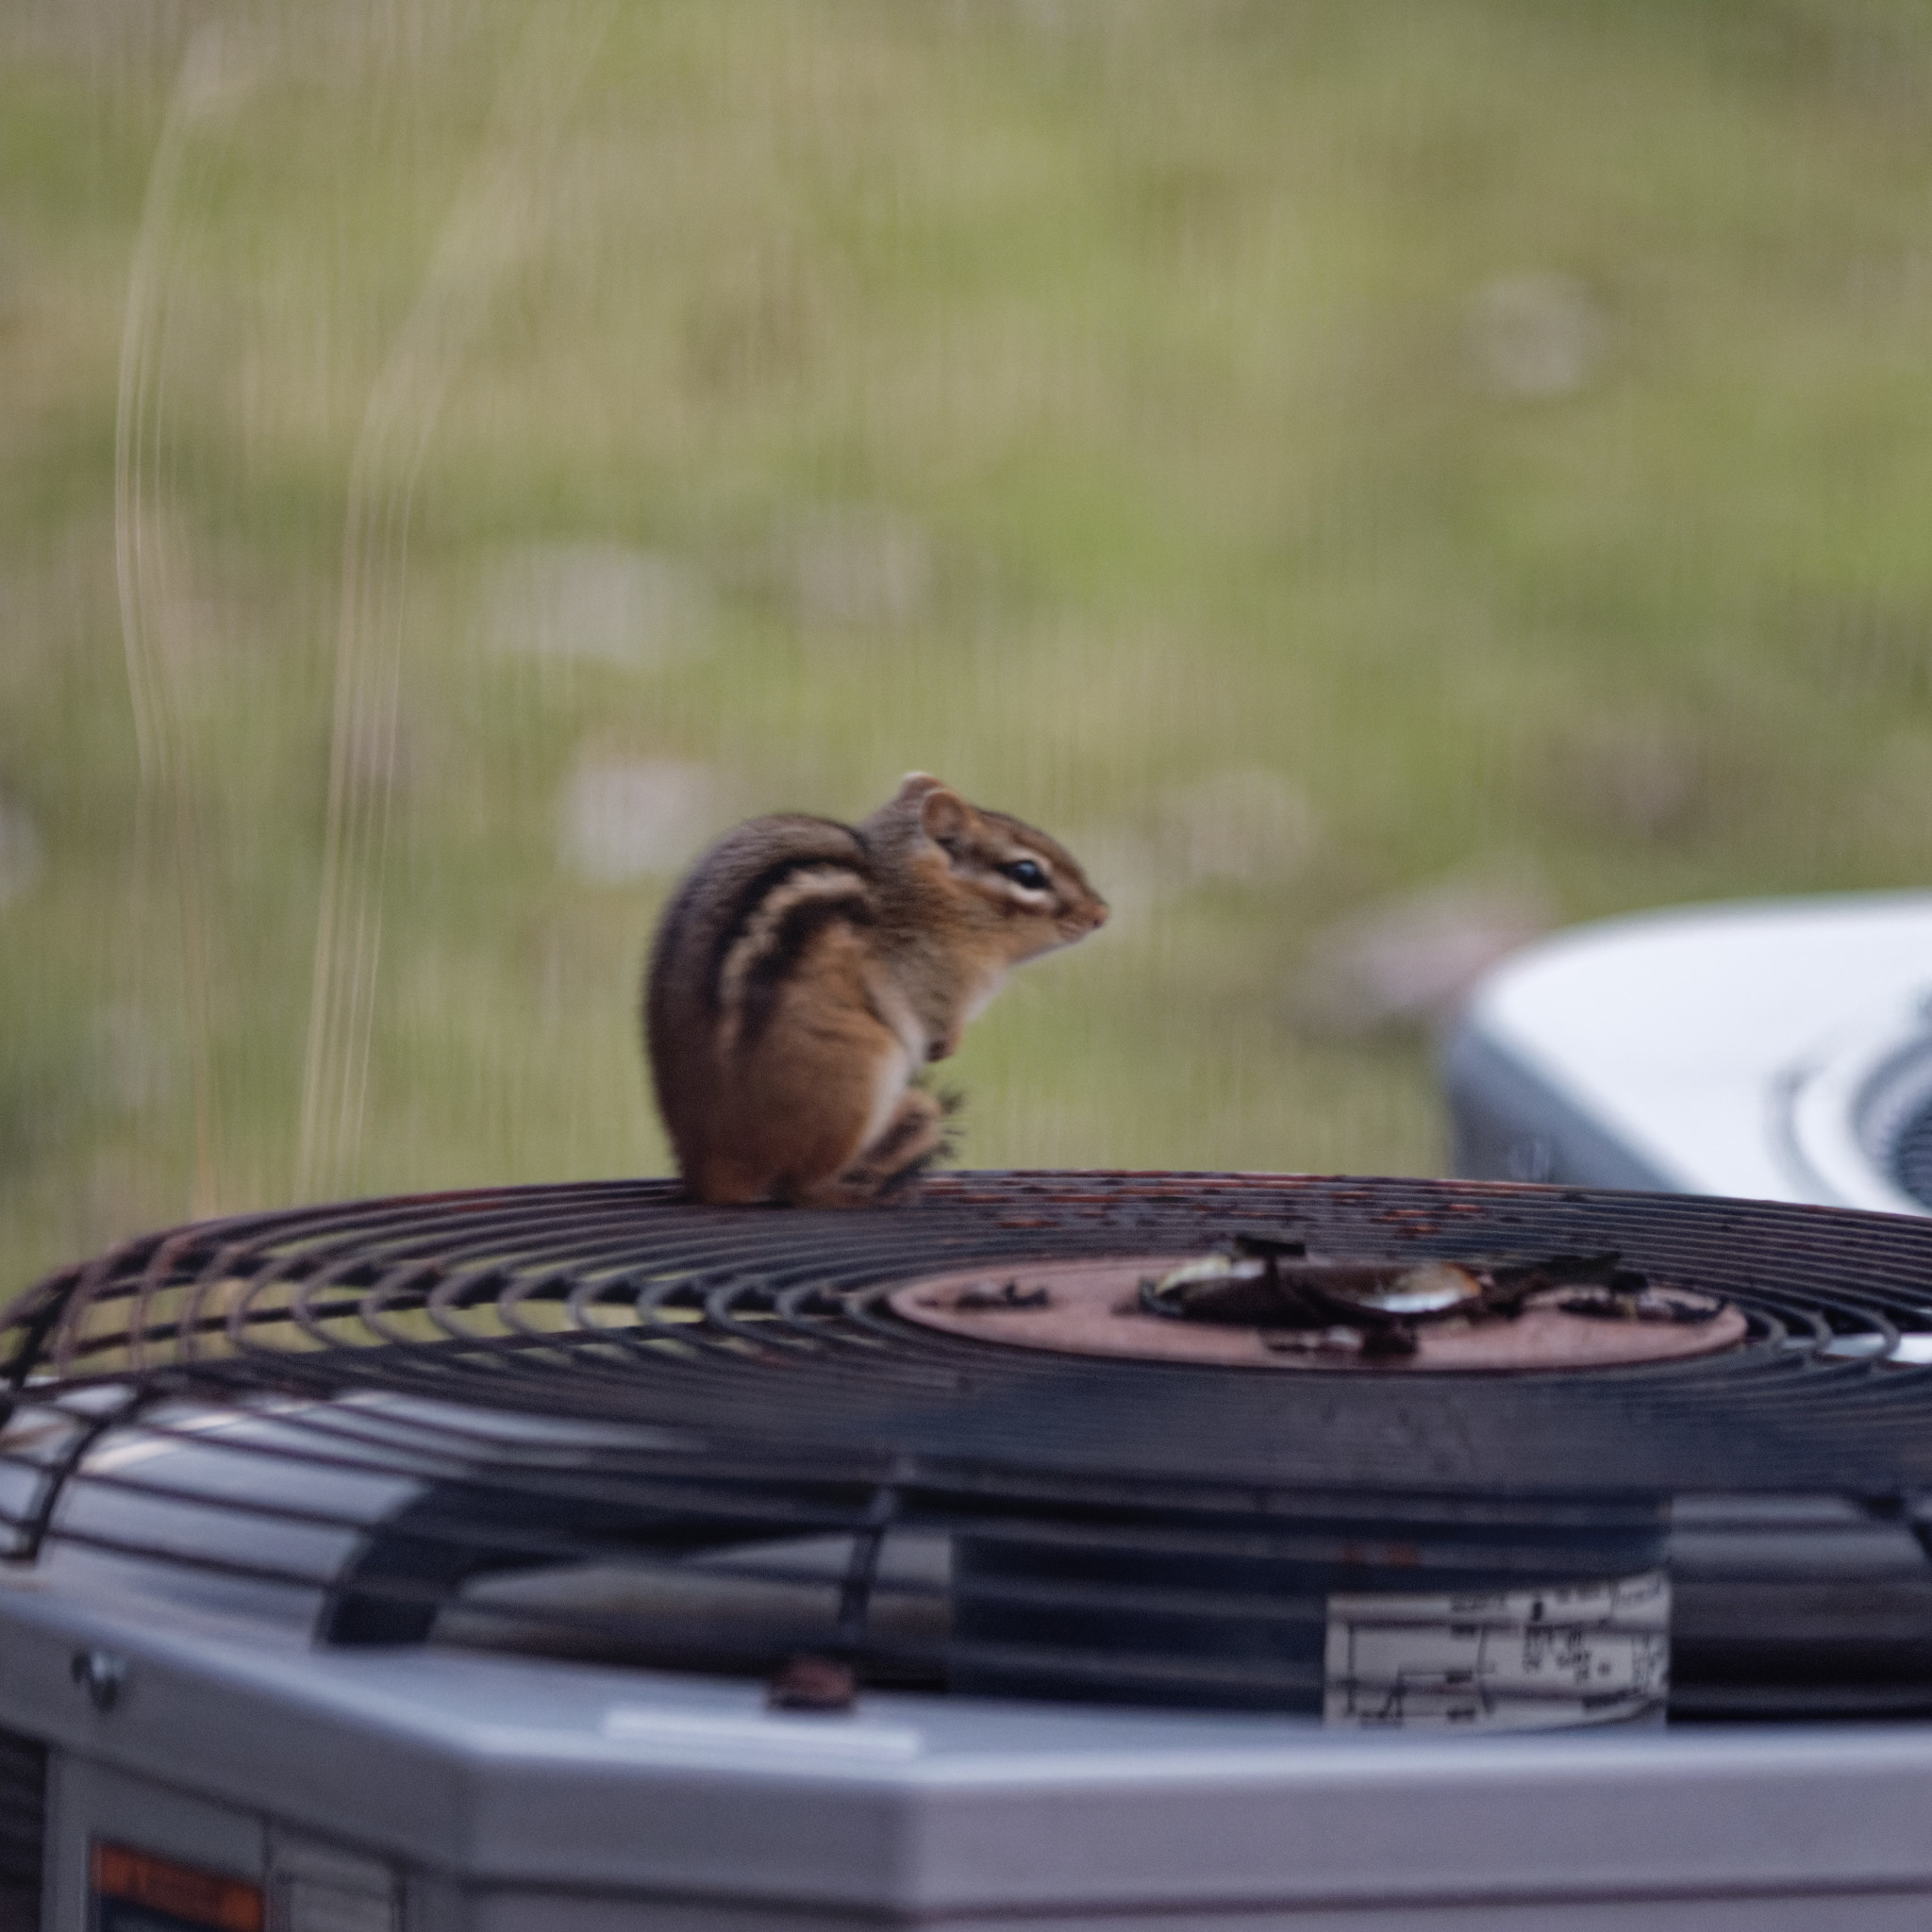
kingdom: Animalia
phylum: Chordata
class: Mammalia
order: Rodentia
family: Sciuridae
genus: Tamias
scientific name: Tamias striatus
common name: Eastern chipmunk
